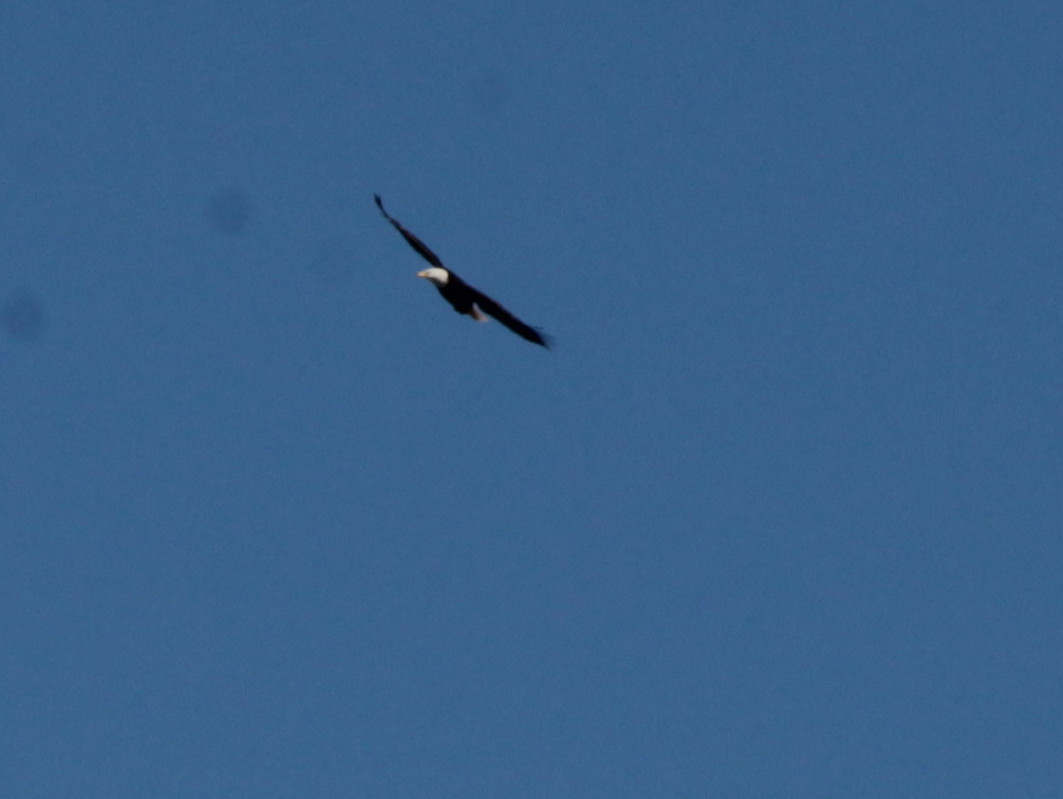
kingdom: Animalia
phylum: Chordata
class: Aves
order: Accipitriformes
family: Accipitridae
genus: Haliaeetus
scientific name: Haliaeetus leucocephalus
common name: Bald eagle
